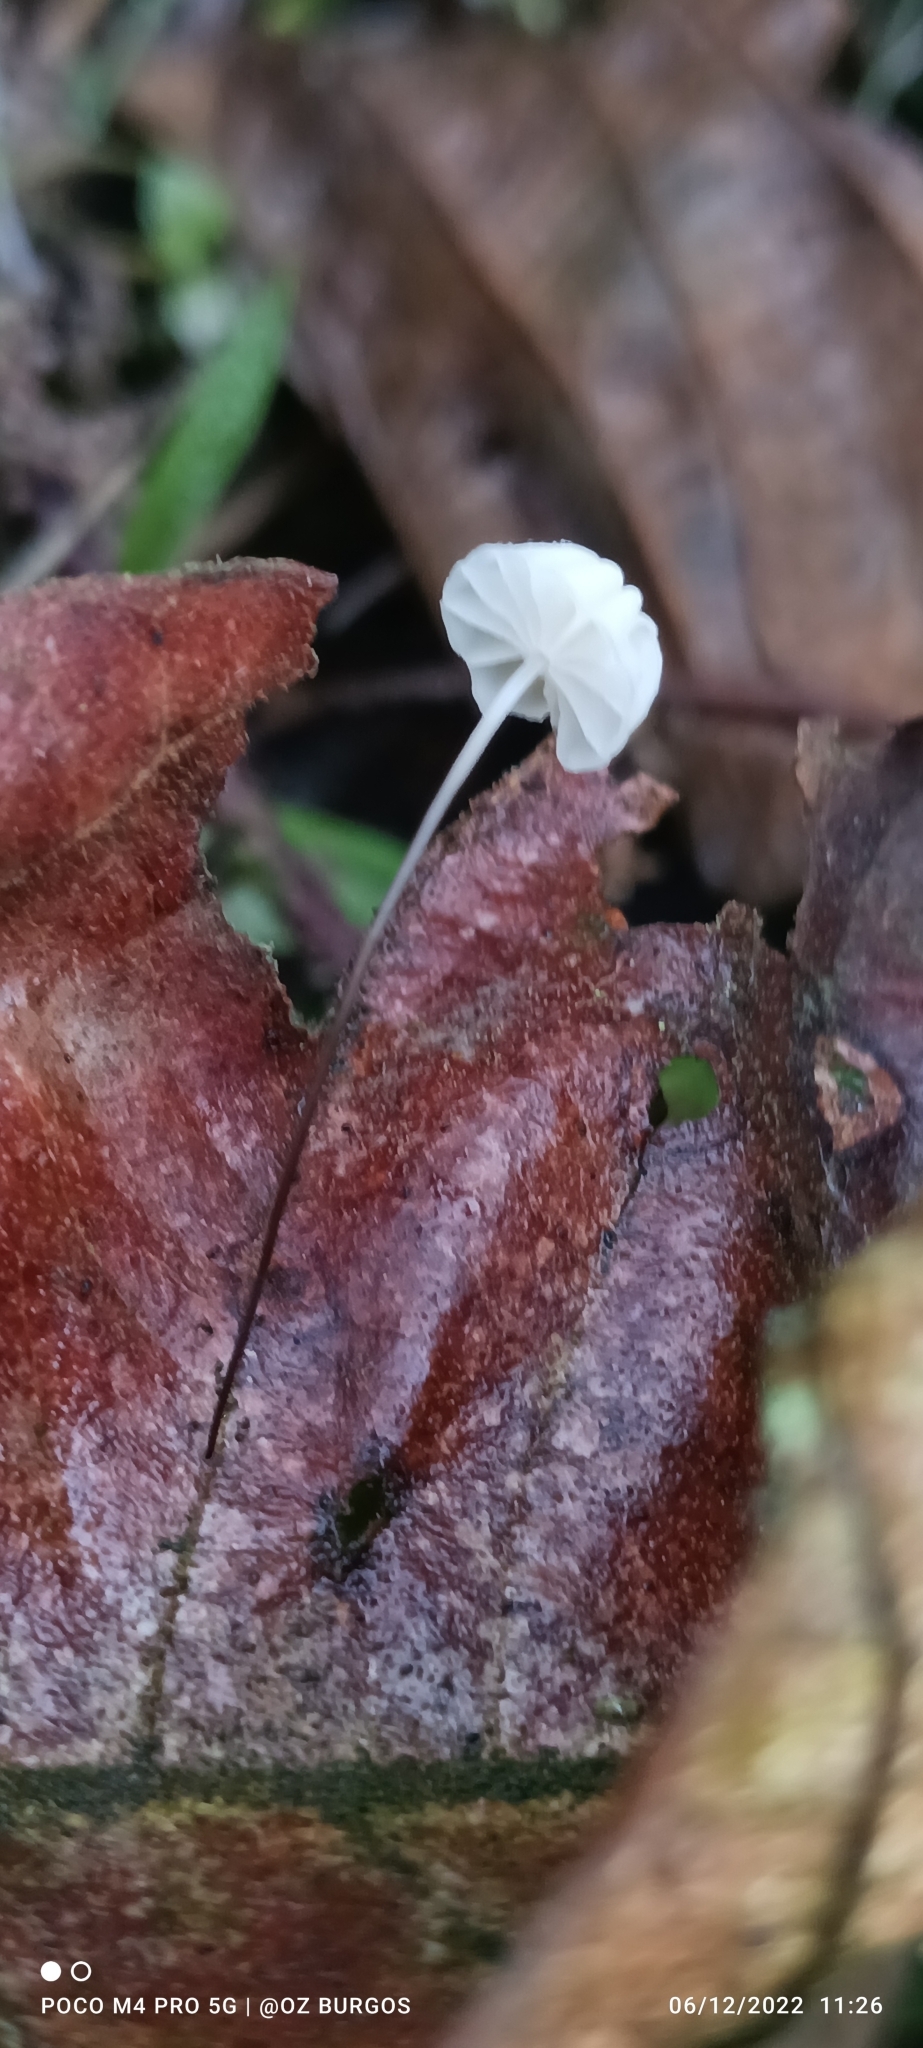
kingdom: Fungi
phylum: Basidiomycota
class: Agaricomycetes
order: Agaricales
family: Marasmiaceae
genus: Marasmius
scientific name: Marasmius capillaris
